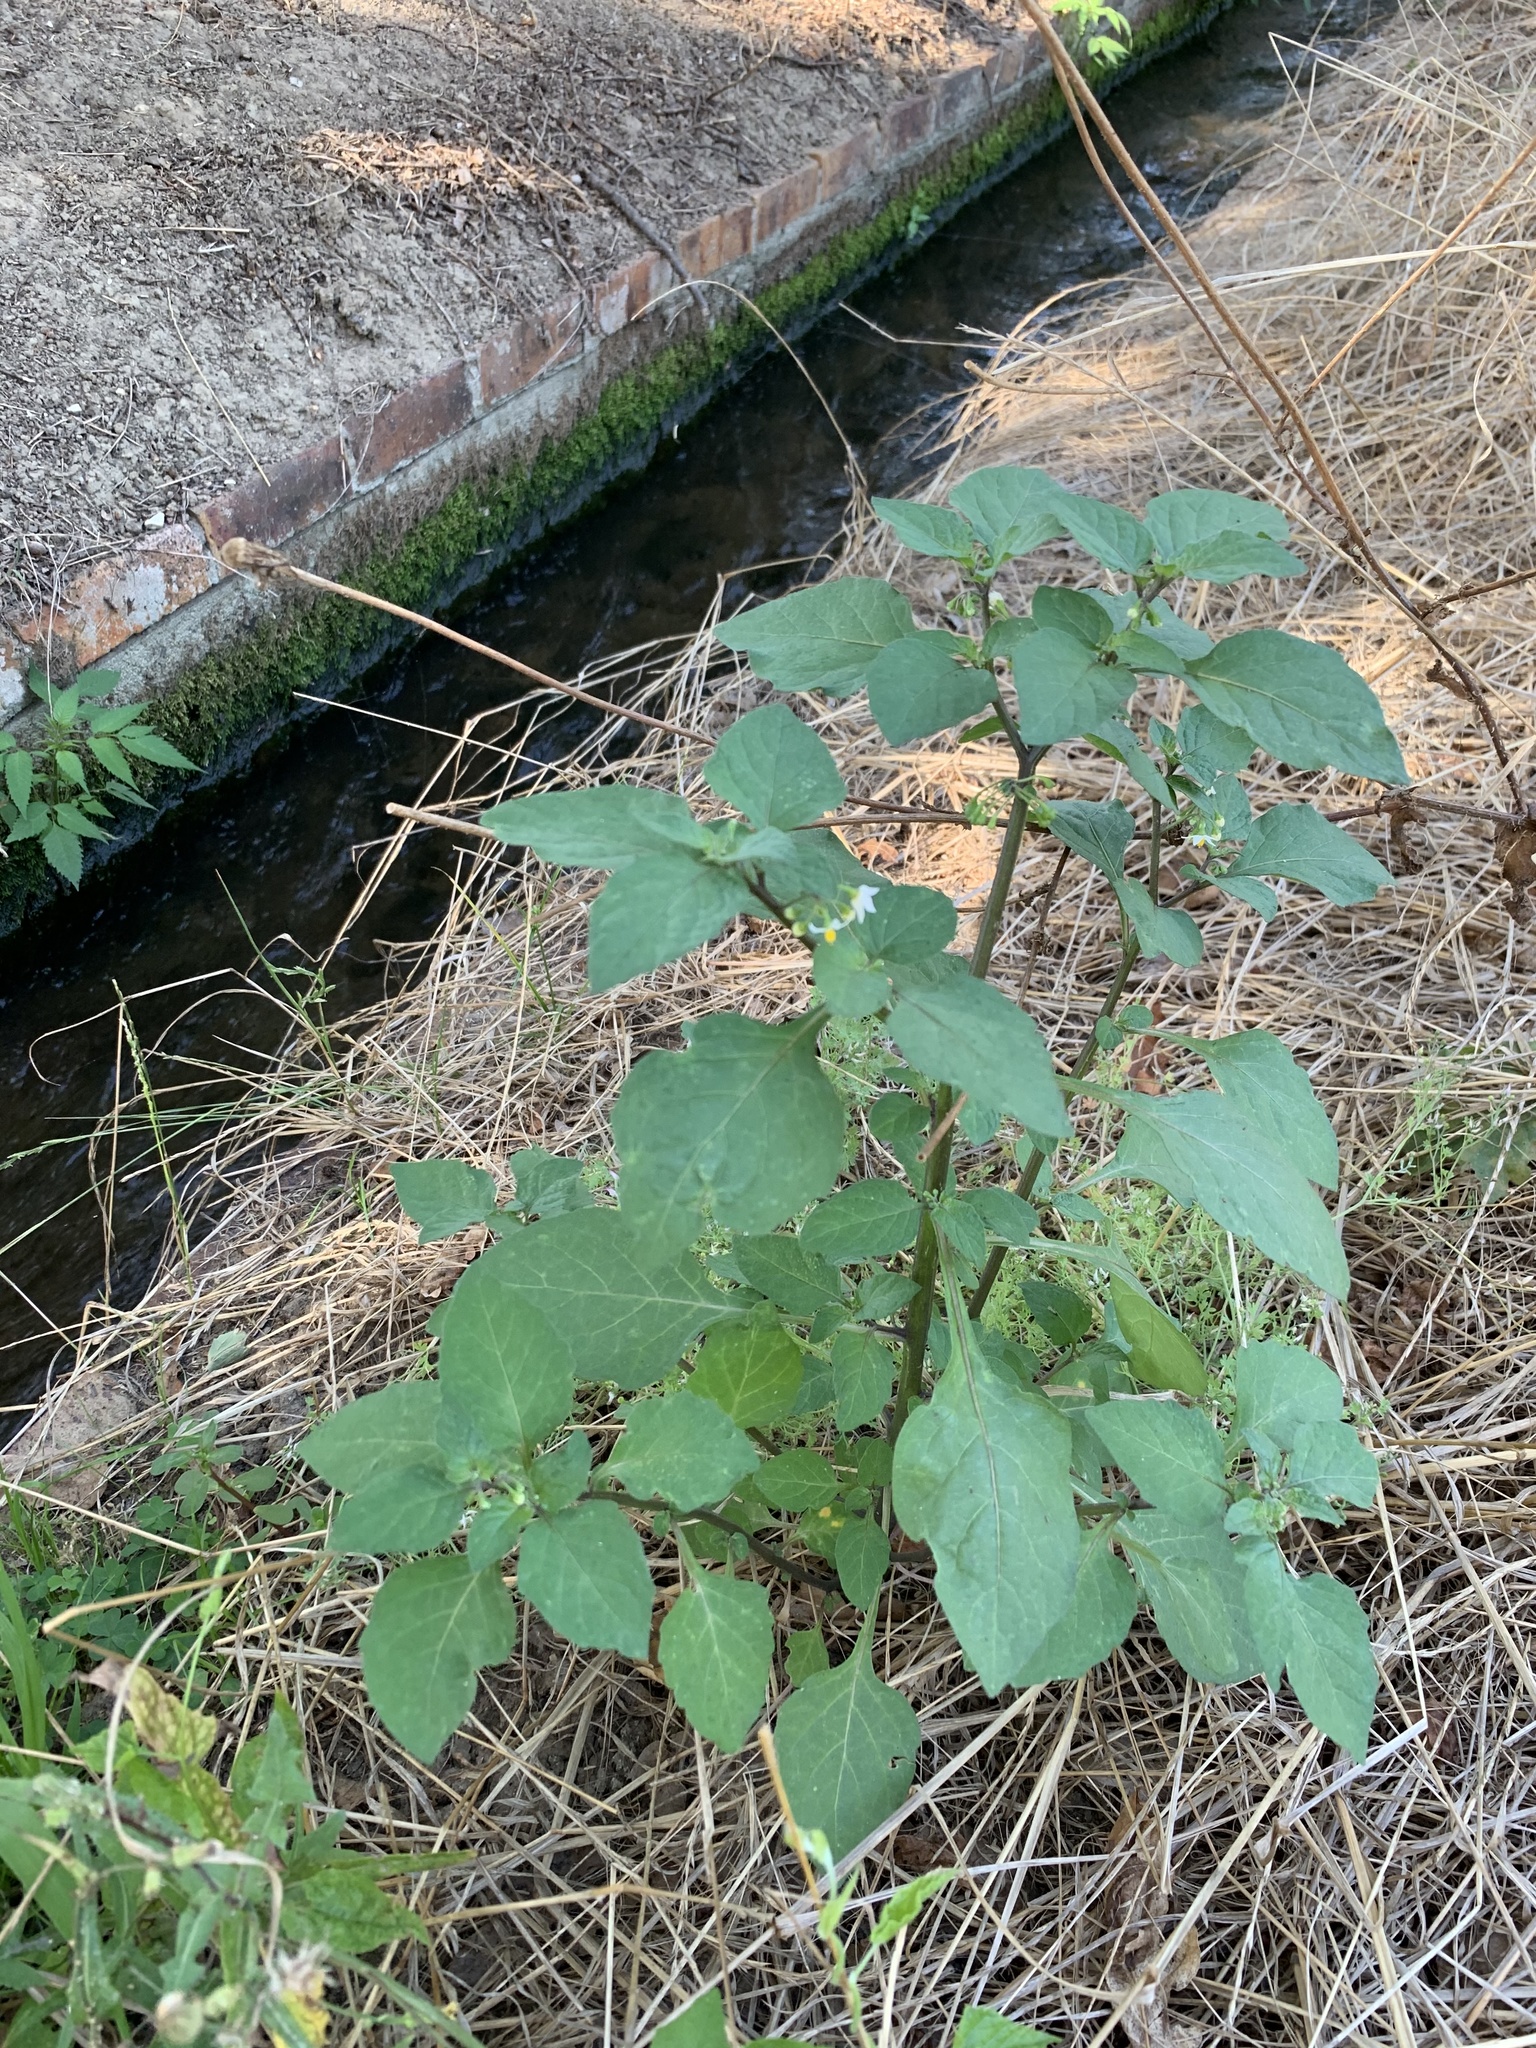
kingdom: Plantae
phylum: Tracheophyta
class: Magnoliopsida
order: Solanales
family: Solanaceae
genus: Solanum
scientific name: Solanum nigrum
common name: Black nightshade
